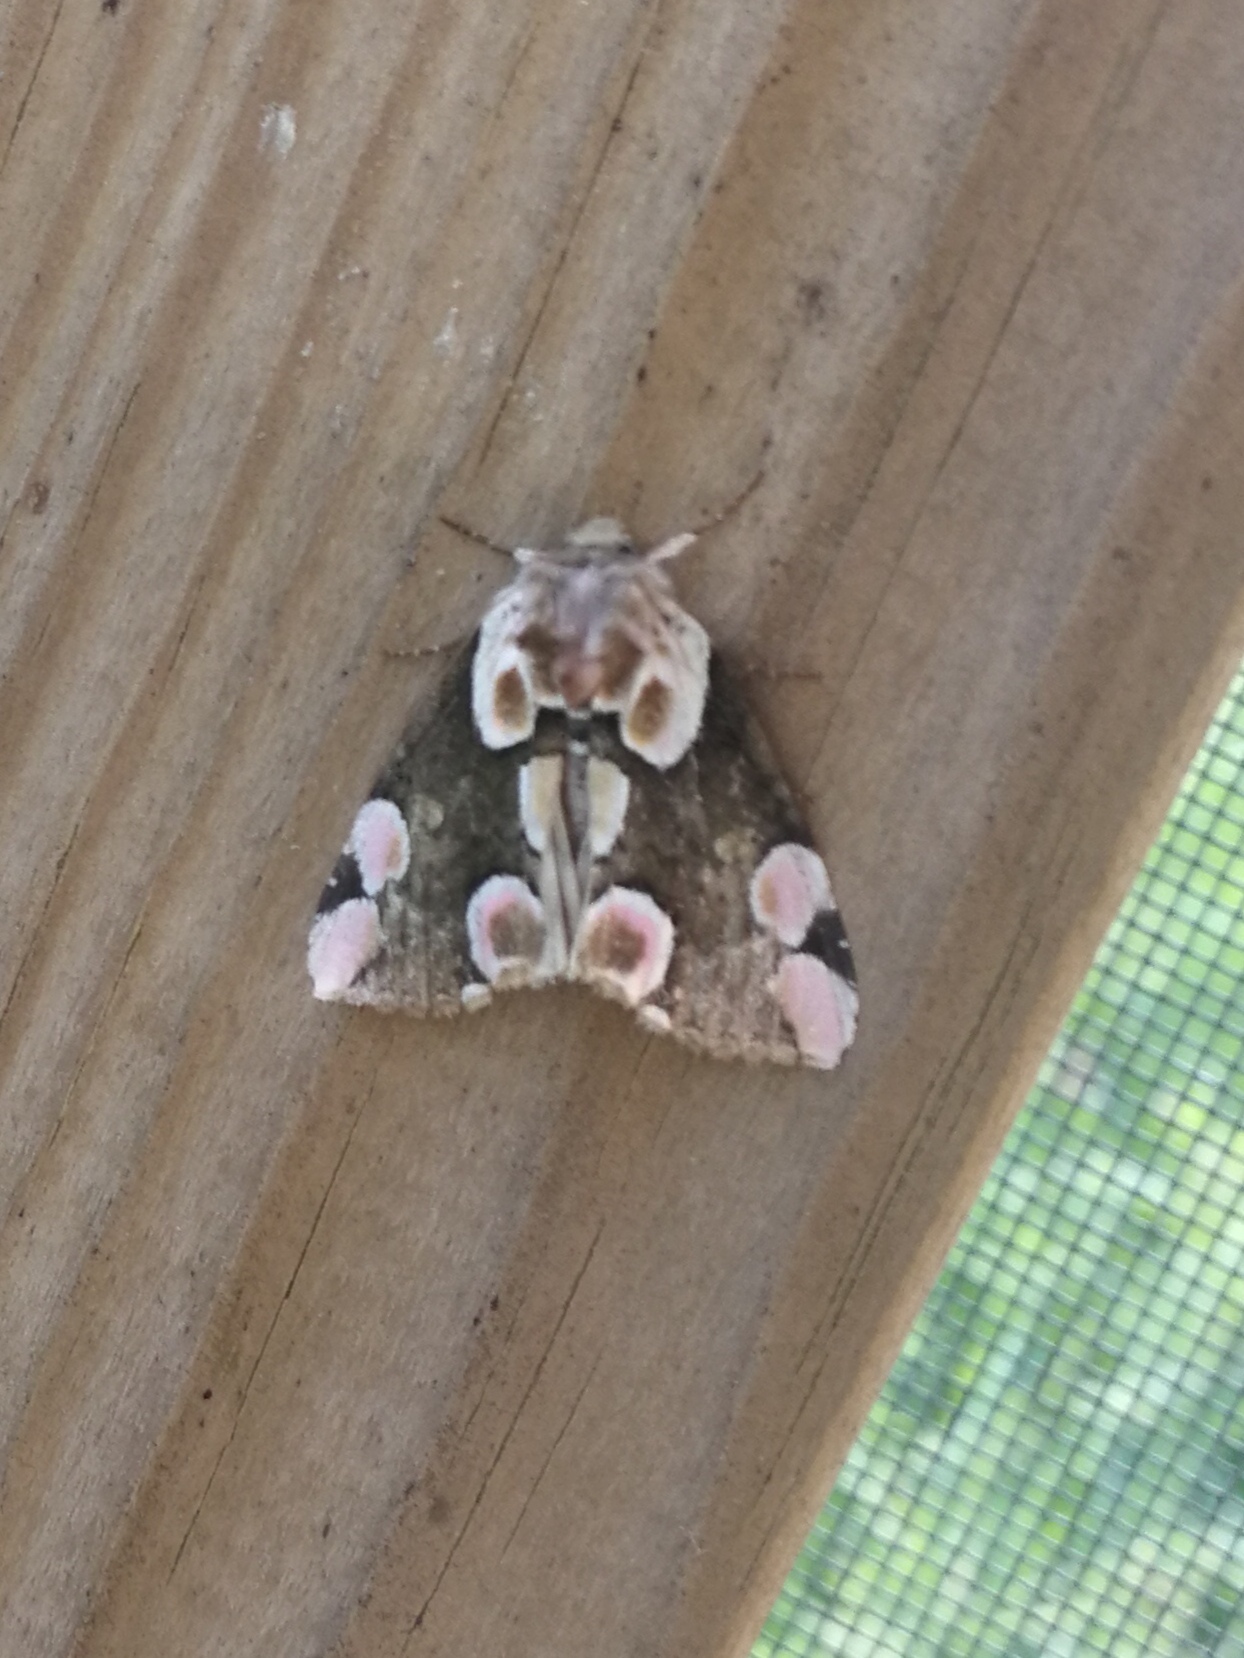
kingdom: Animalia
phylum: Arthropoda
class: Insecta
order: Lepidoptera
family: Drepanidae
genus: Thyatira
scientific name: Thyatira batis
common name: Peach blossom
